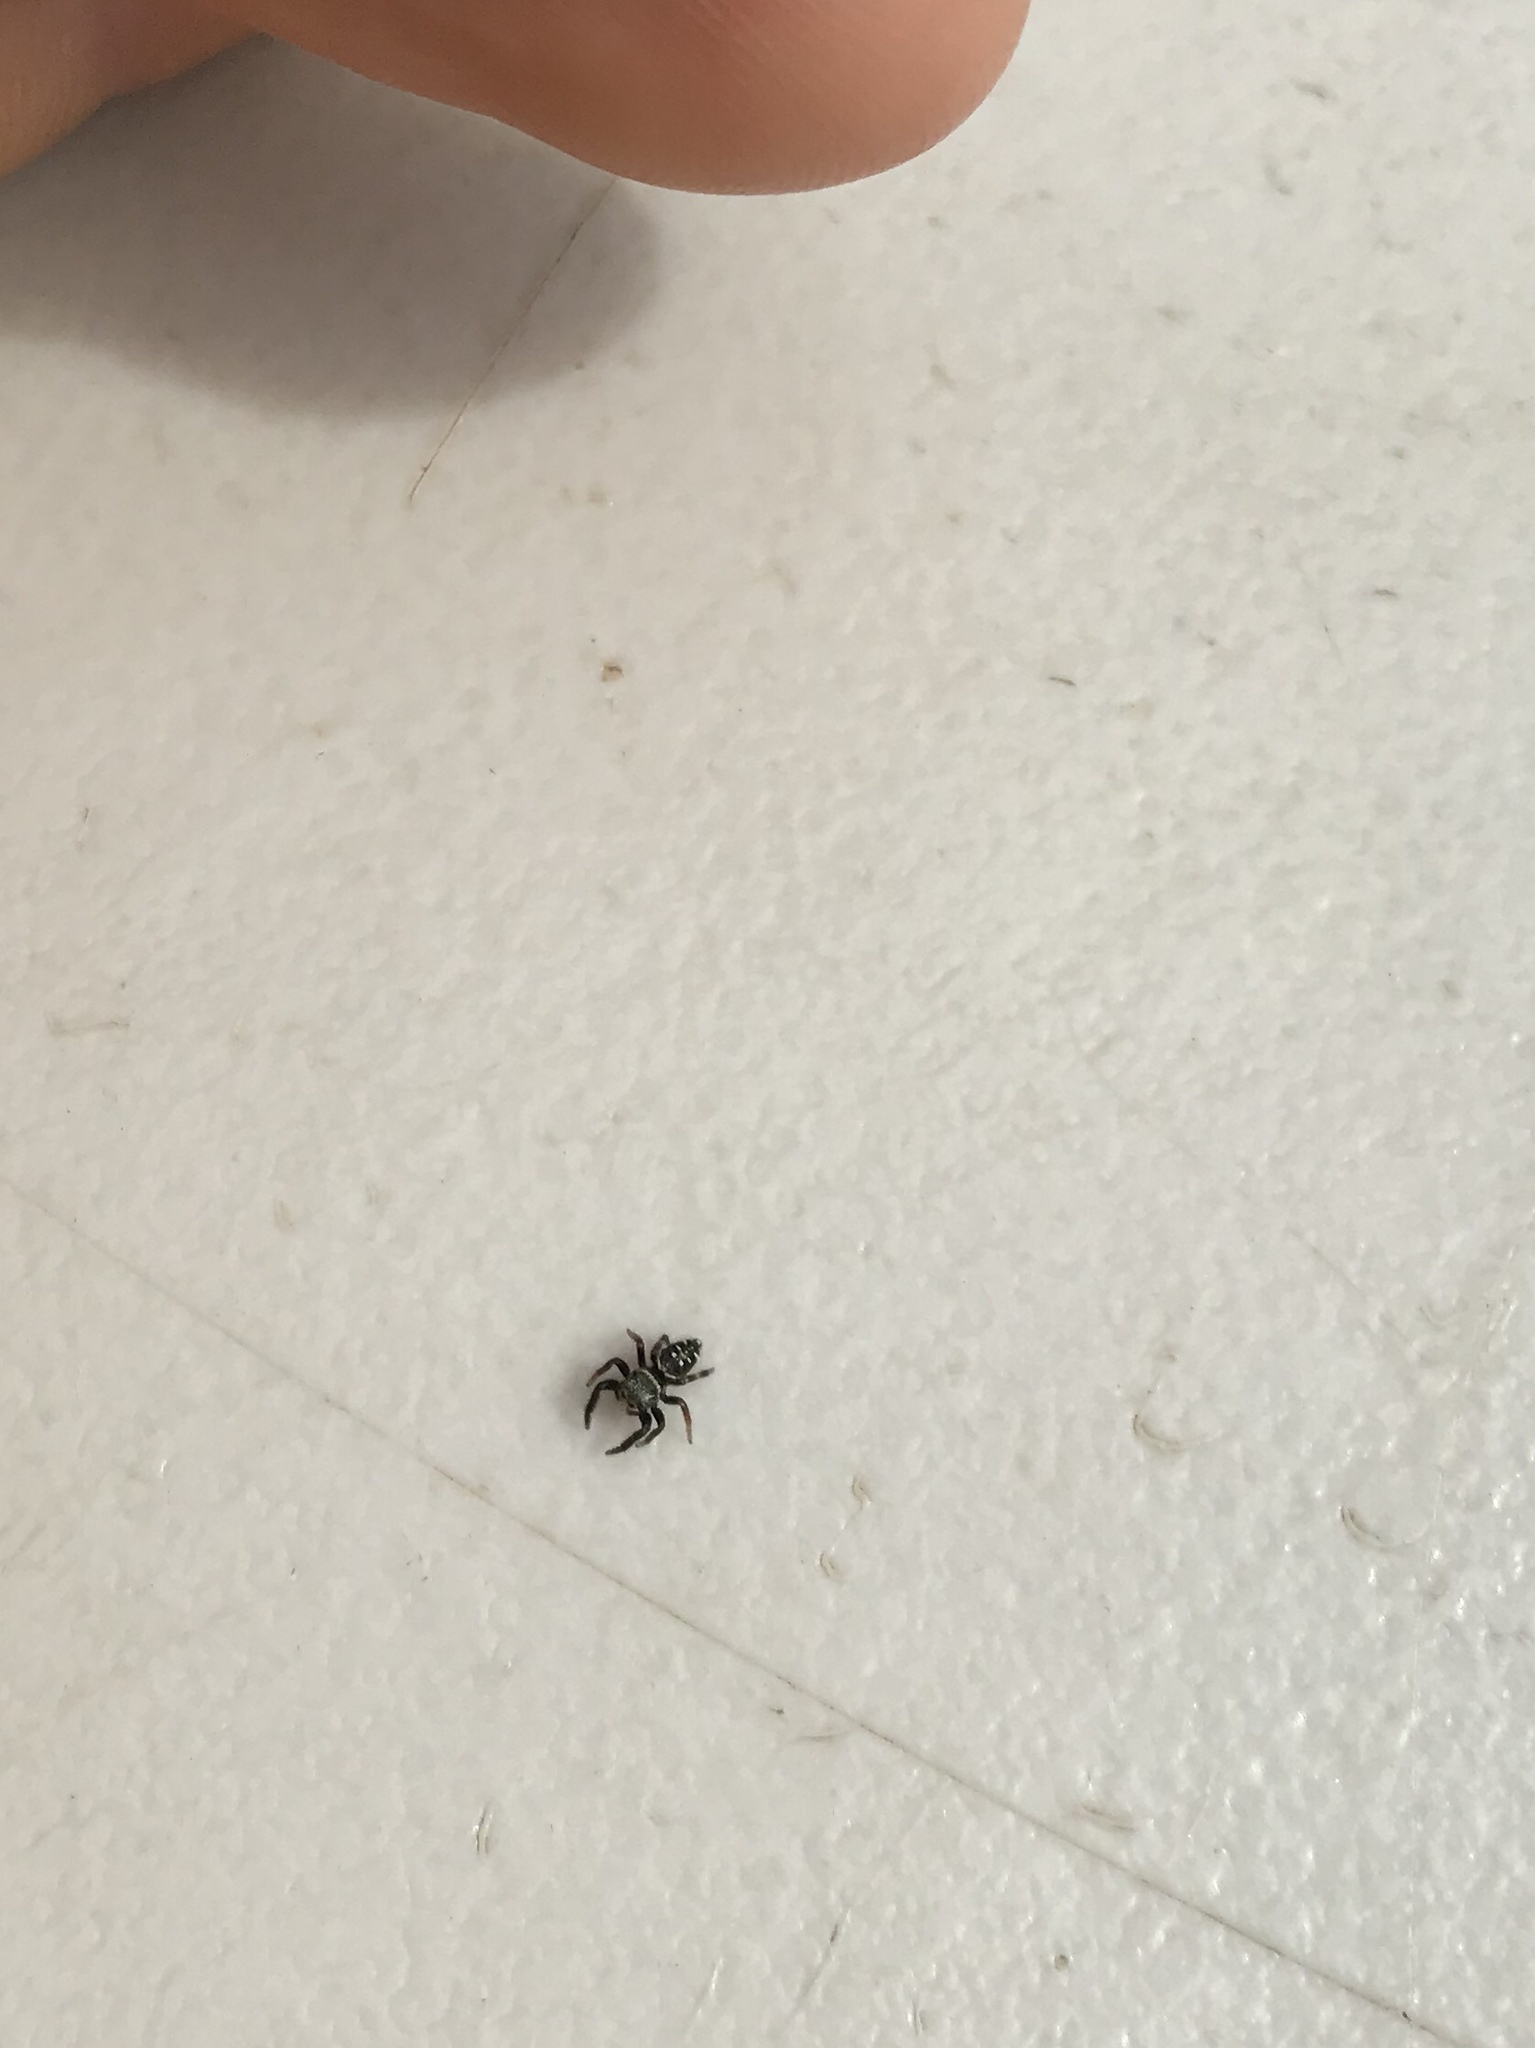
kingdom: Animalia
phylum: Arthropoda
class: Arachnida
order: Araneae
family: Salticidae
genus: Paraphidippus
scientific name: Paraphidippus aurantius
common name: Jumping spiders
